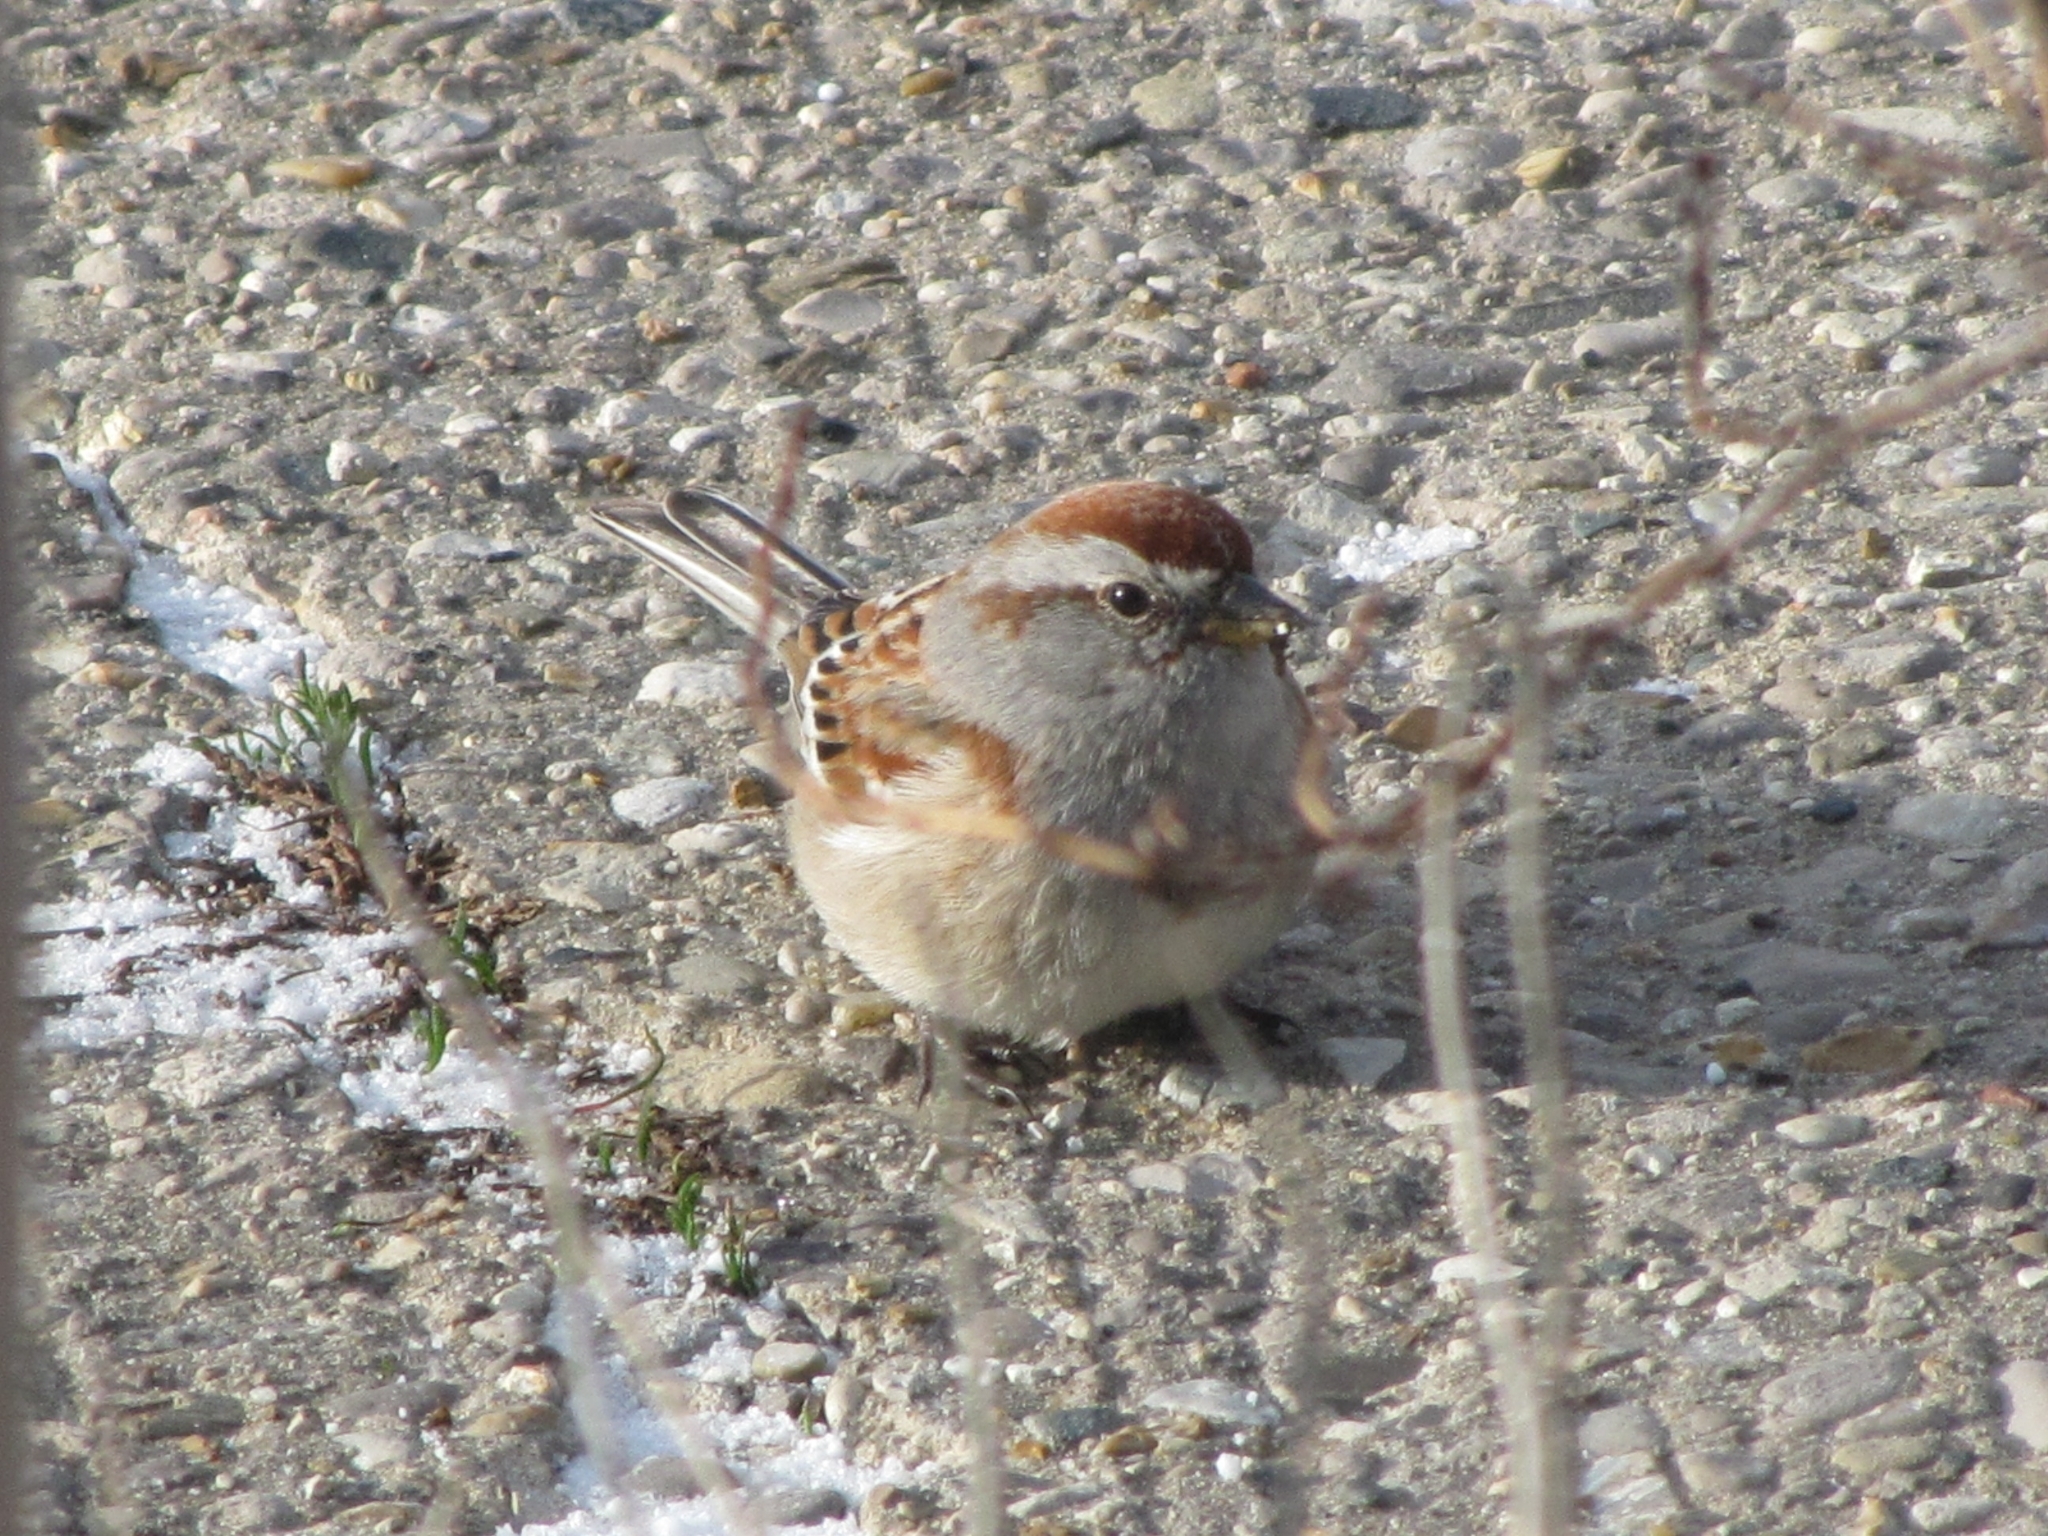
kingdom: Animalia
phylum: Chordata
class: Aves
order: Passeriformes
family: Passerellidae
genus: Spizelloides
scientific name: Spizelloides arborea
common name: American tree sparrow
